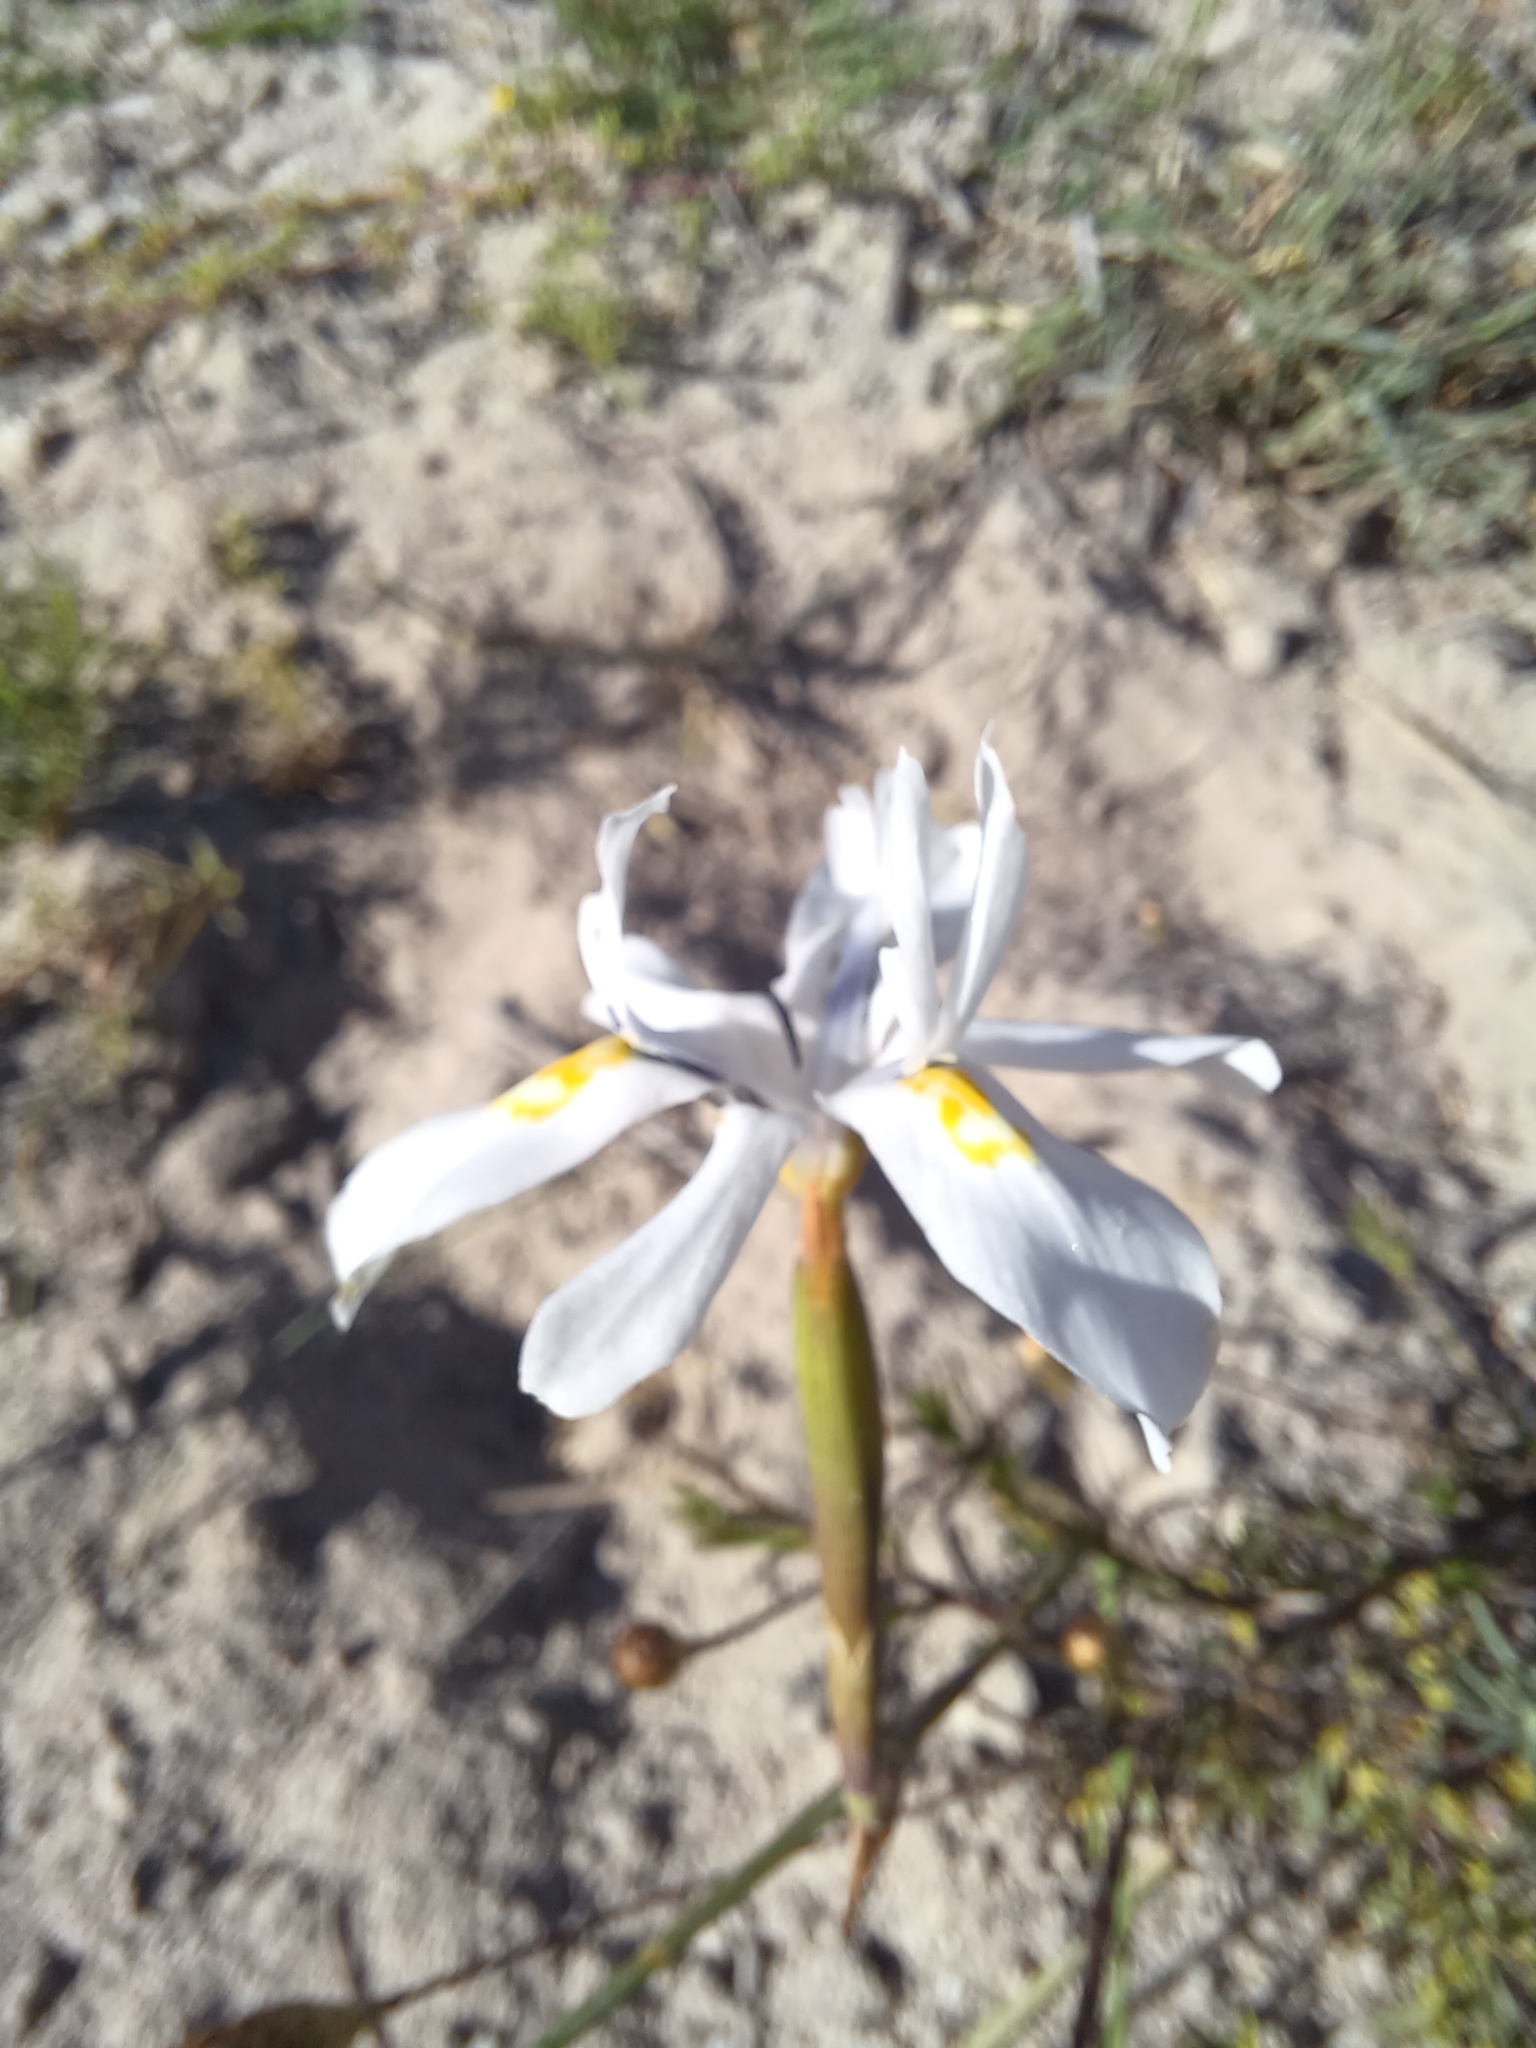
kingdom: Plantae
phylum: Tracheophyta
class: Liliopsida
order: Asparagales
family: Iridaceae
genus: Moraea
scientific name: Moraea fugax
